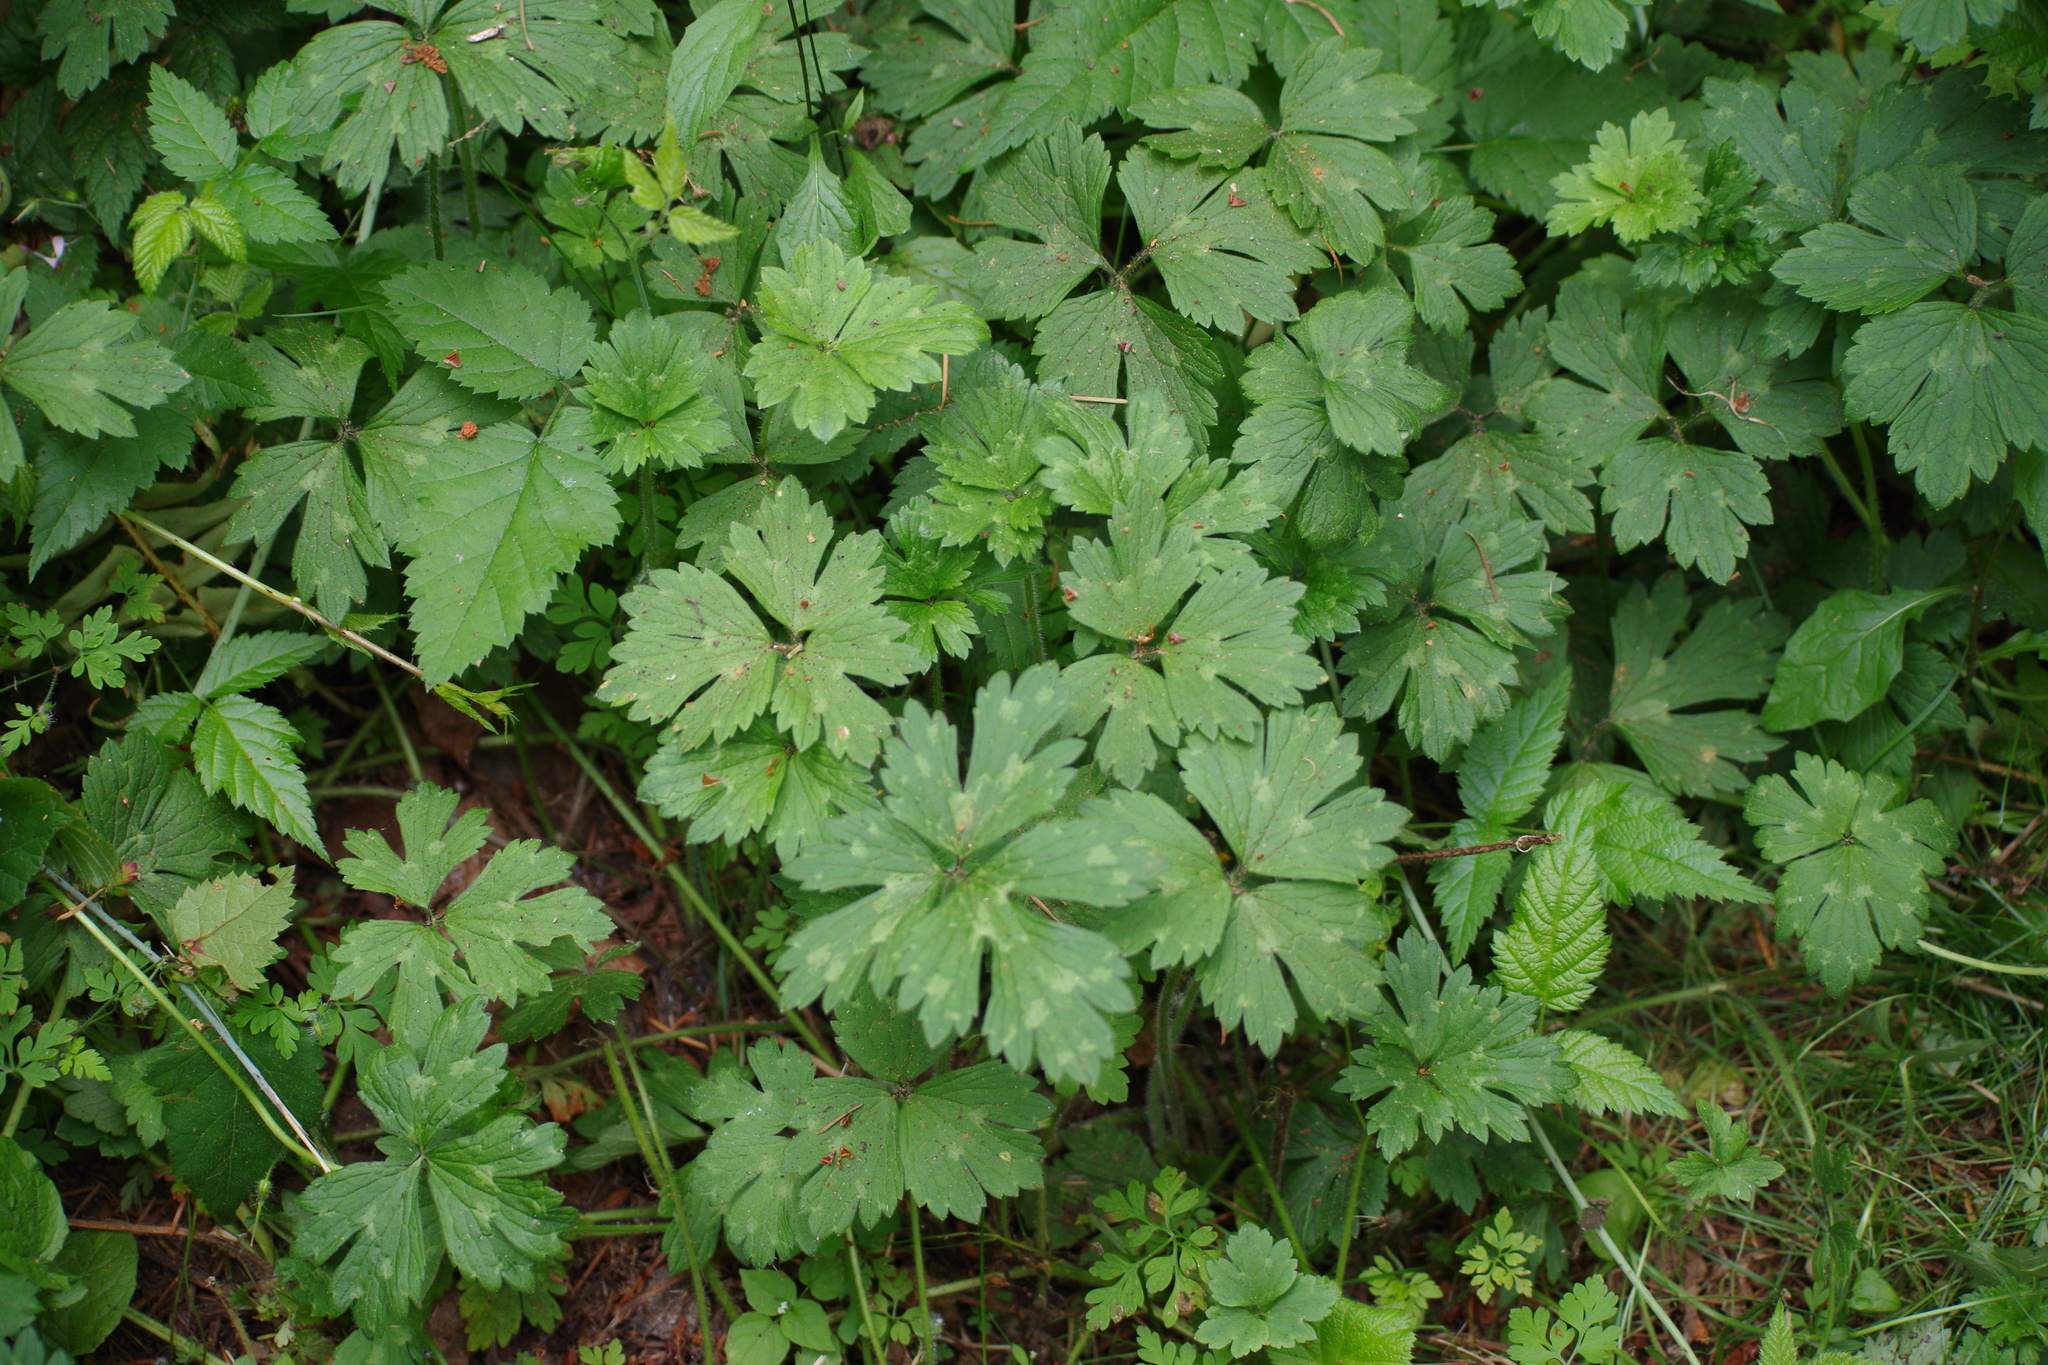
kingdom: Plantae
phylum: Tracheophyta
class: Magnoliopsida
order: Ranunculales
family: Ranunculaceae
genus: Ranunculus
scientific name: Ranunculus repens
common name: Creeping buttercup
